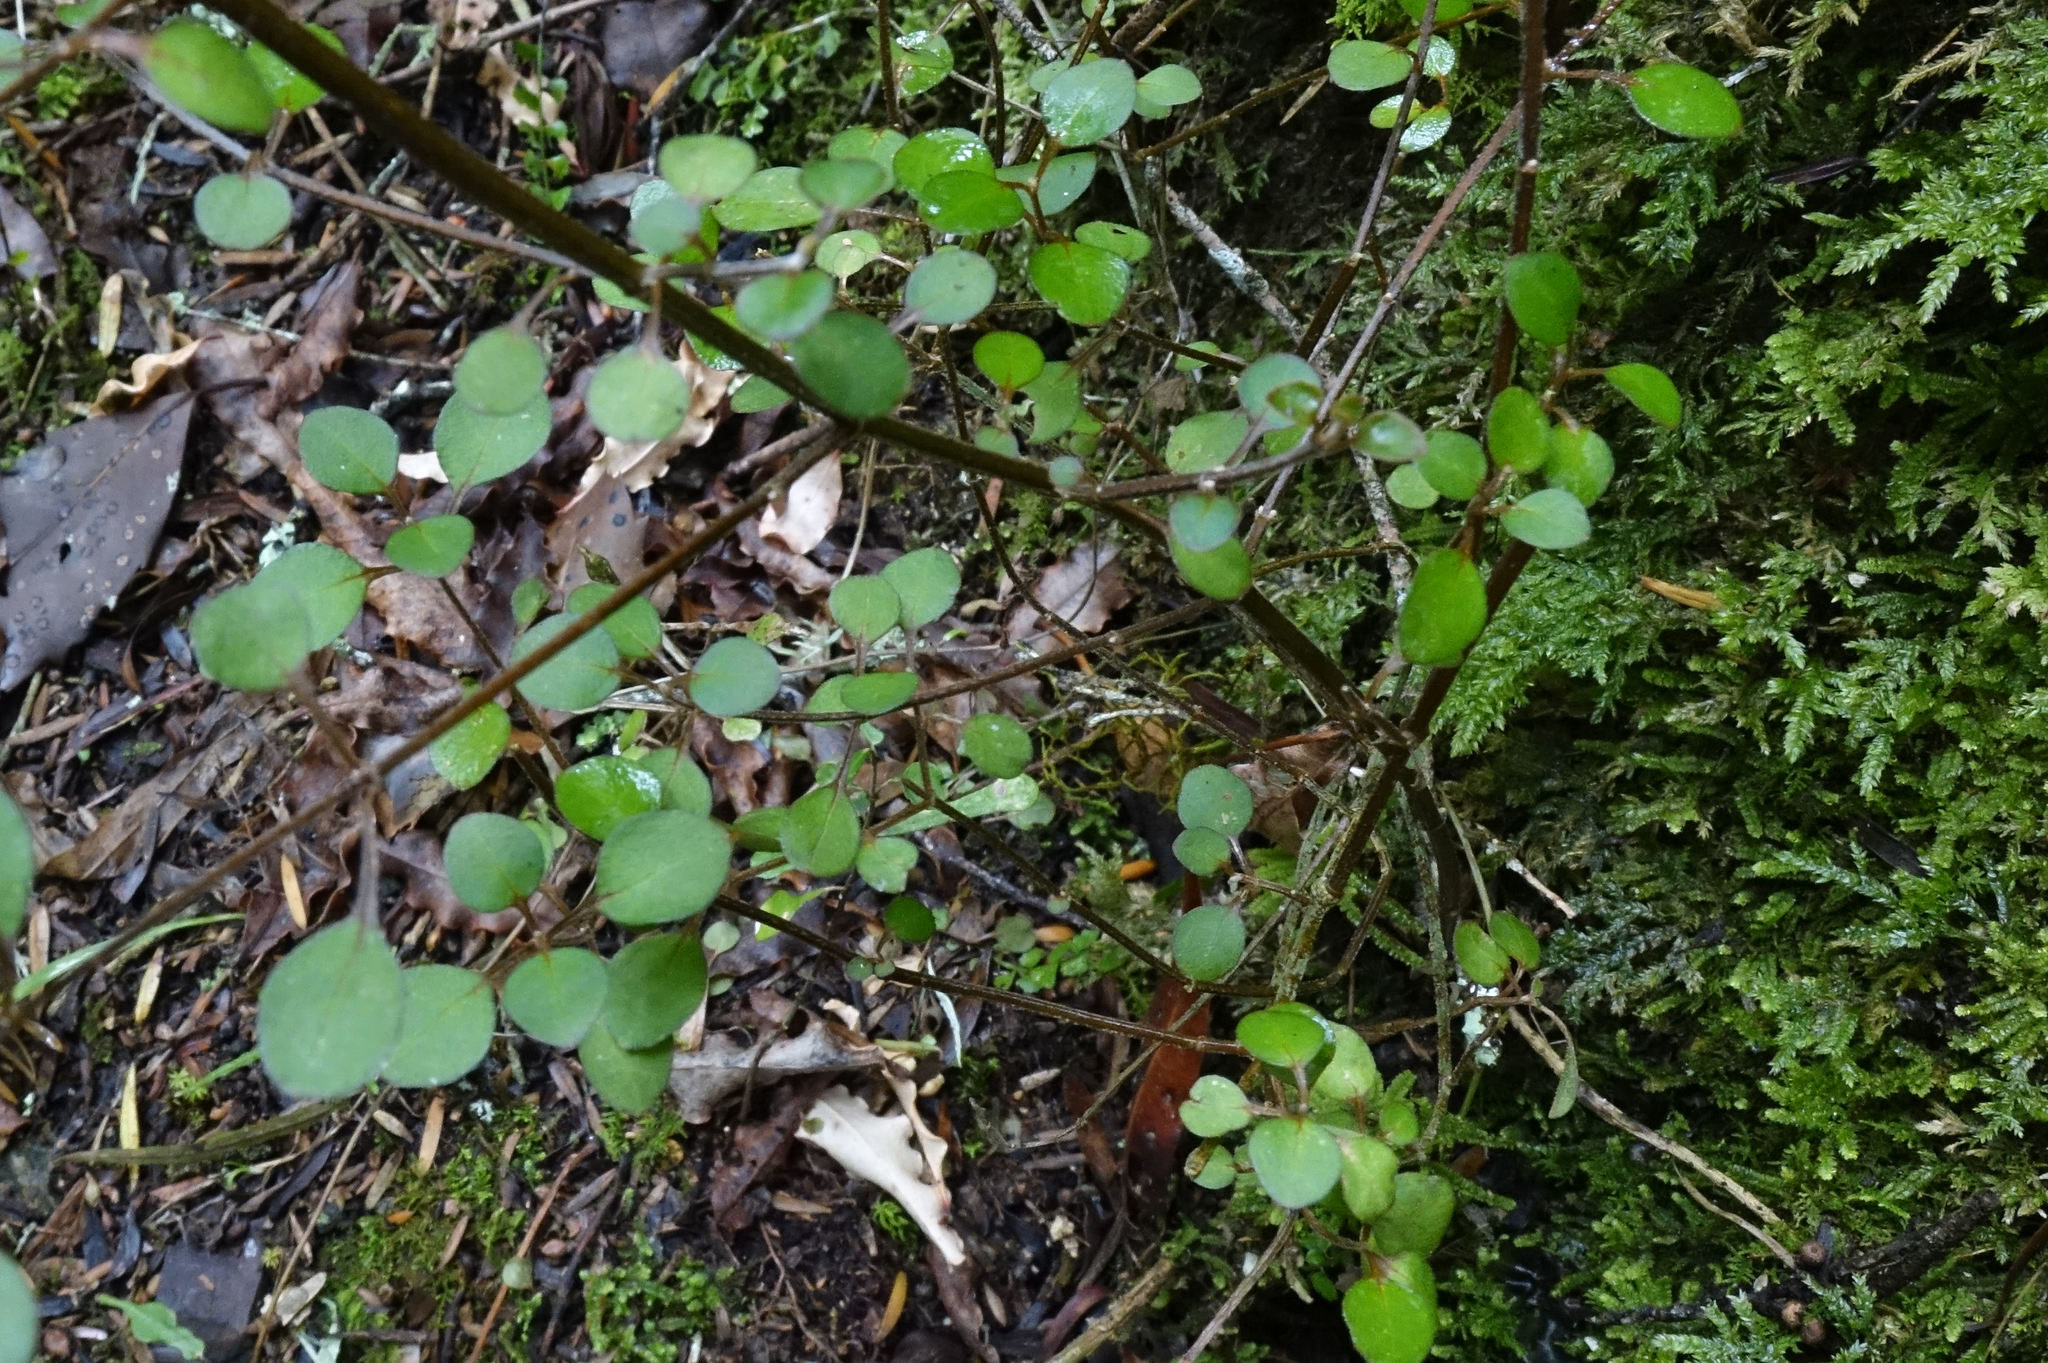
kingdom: Plantae
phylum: Tracheophyta
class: Magnoliopsida
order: Lamiales
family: Lamiaceae
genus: Teucrium
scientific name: Teucrium parvifolium
